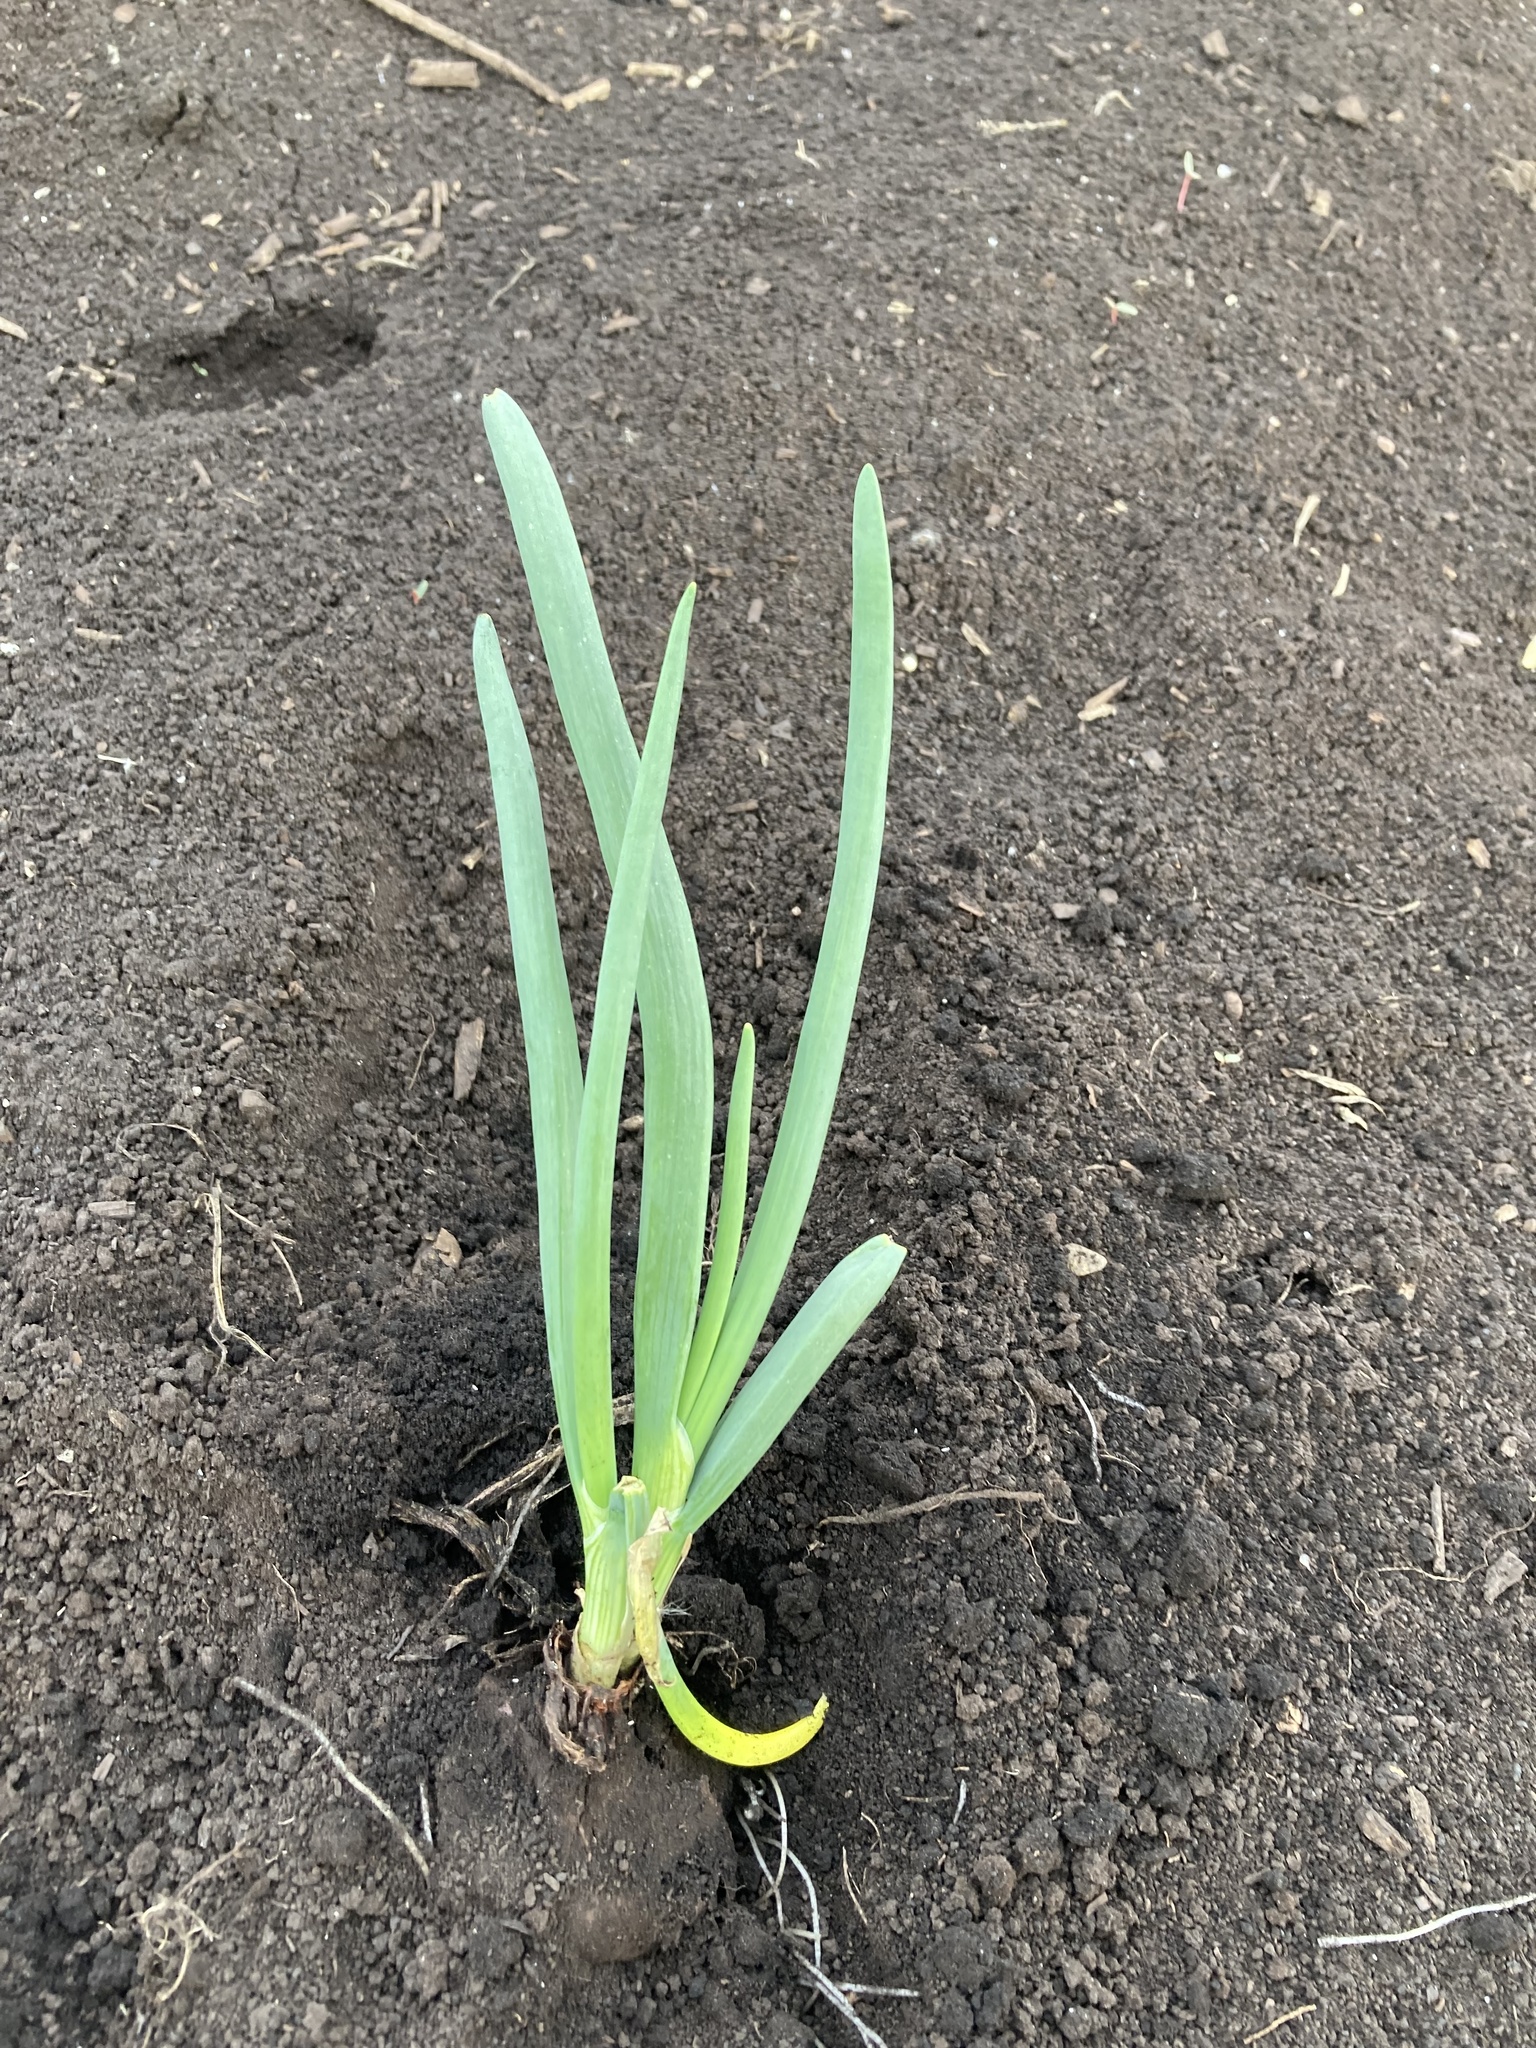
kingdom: Plantae
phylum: Tracheophyta
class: Liliopsida
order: Asparagales
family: Amaryllidaceae
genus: Allium
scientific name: Allium cepa
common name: Onion
